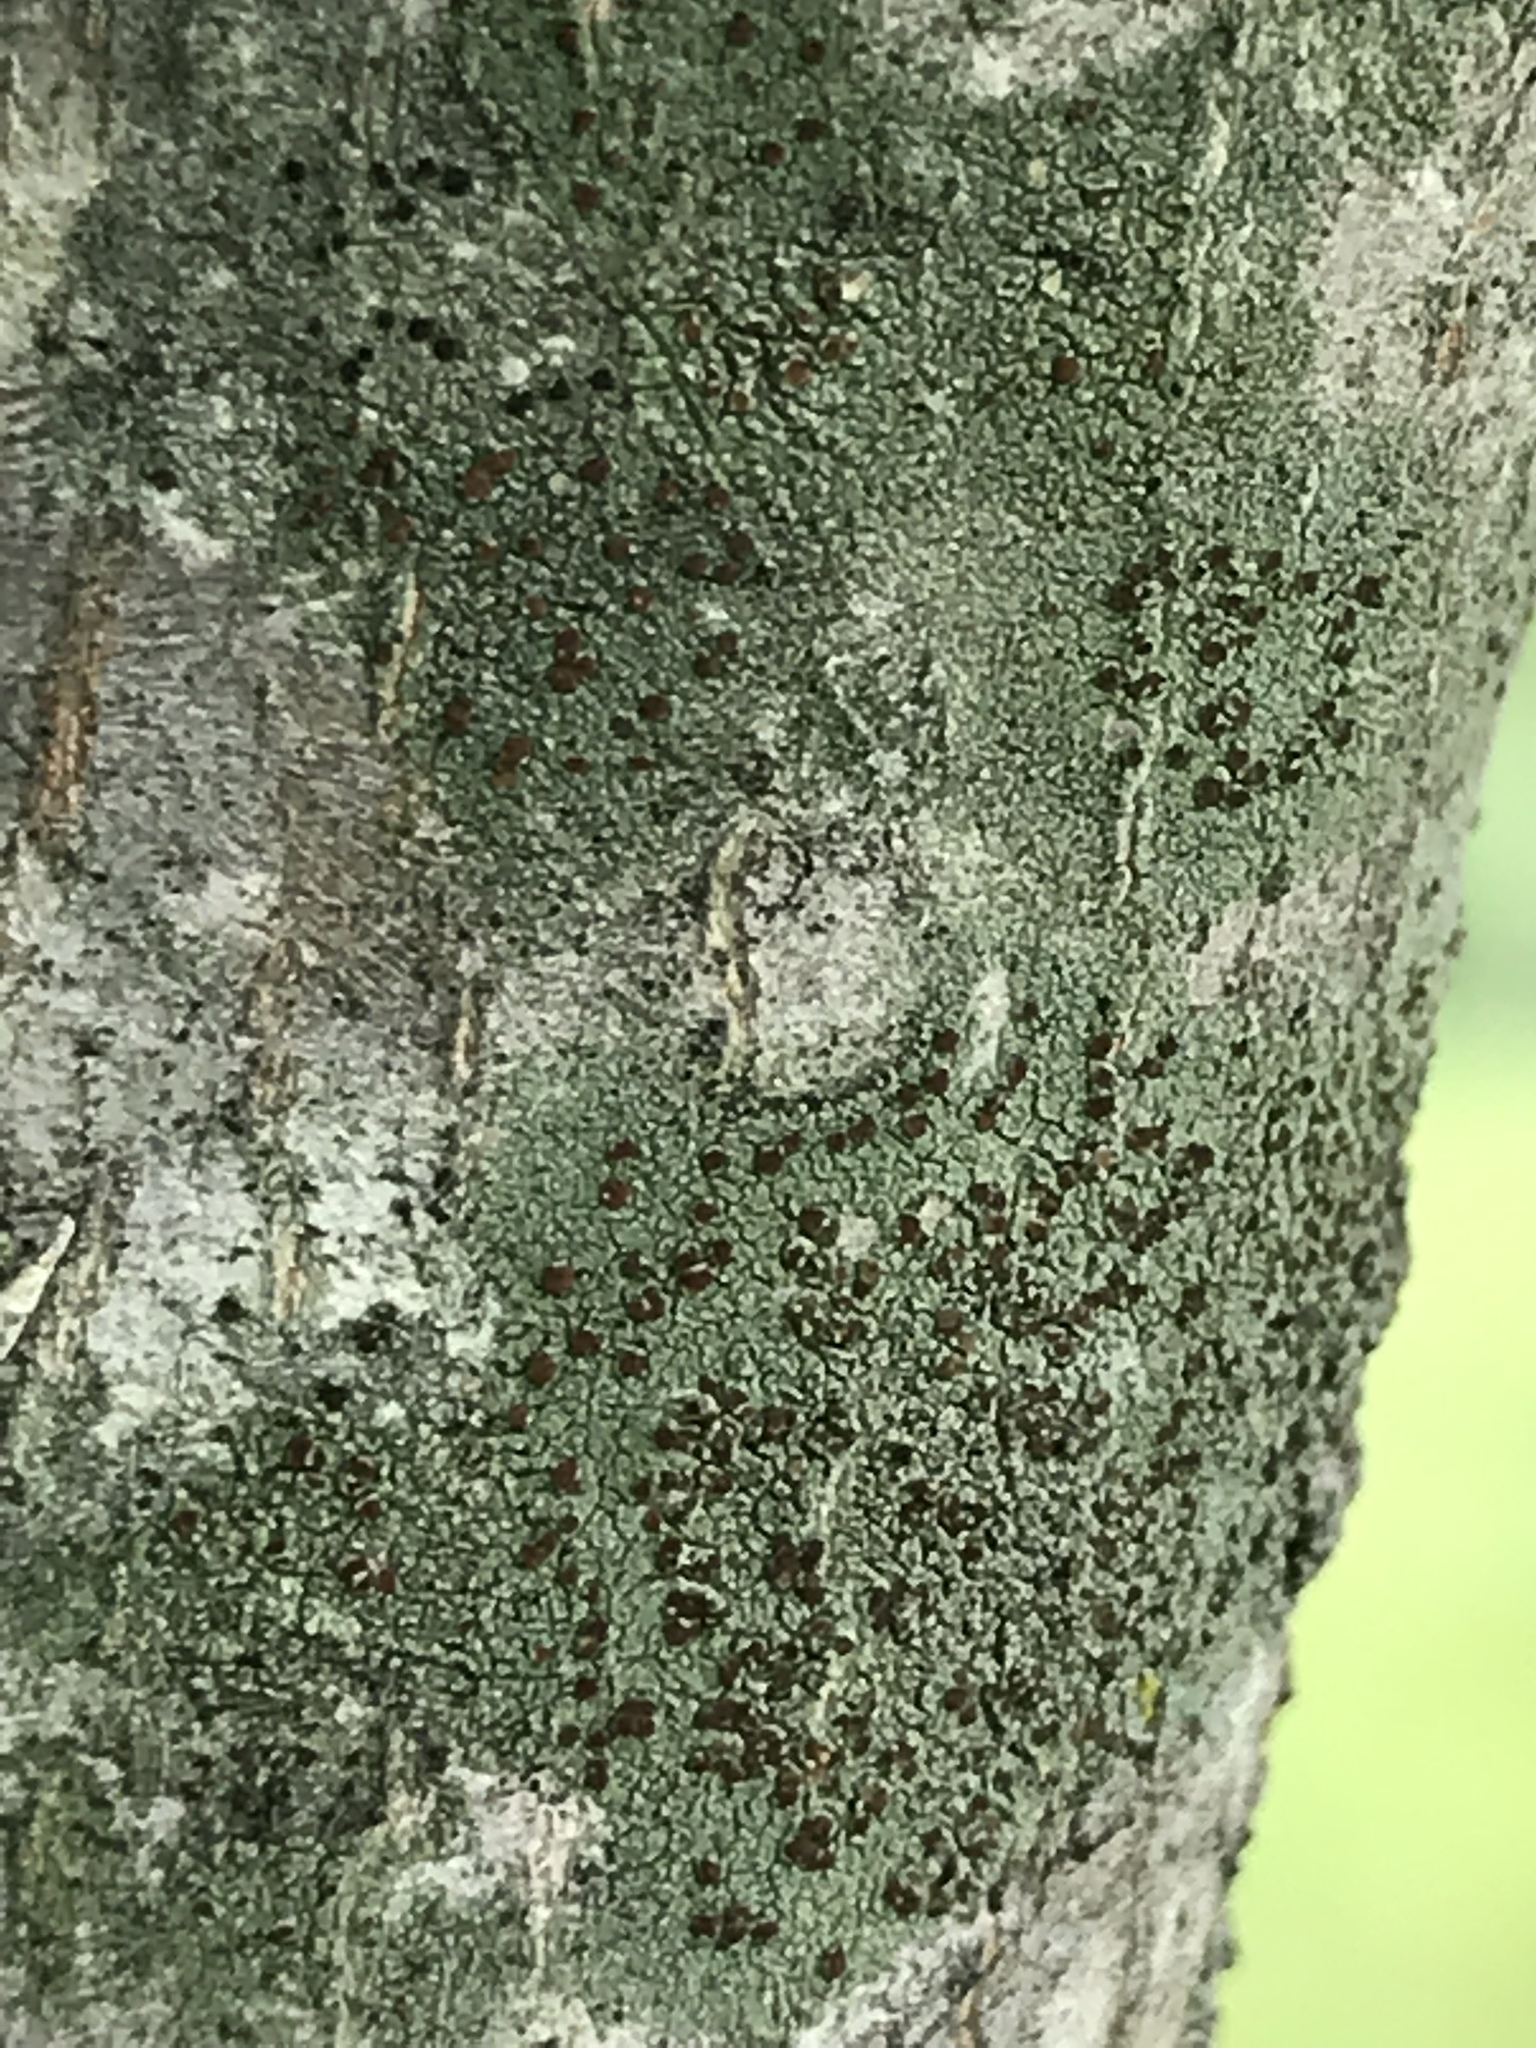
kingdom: Fungi
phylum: Ascomycota
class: Lecanoromycetes
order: Lecanorales
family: Lecanoraceae
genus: Traponora
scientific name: Traponora varians
